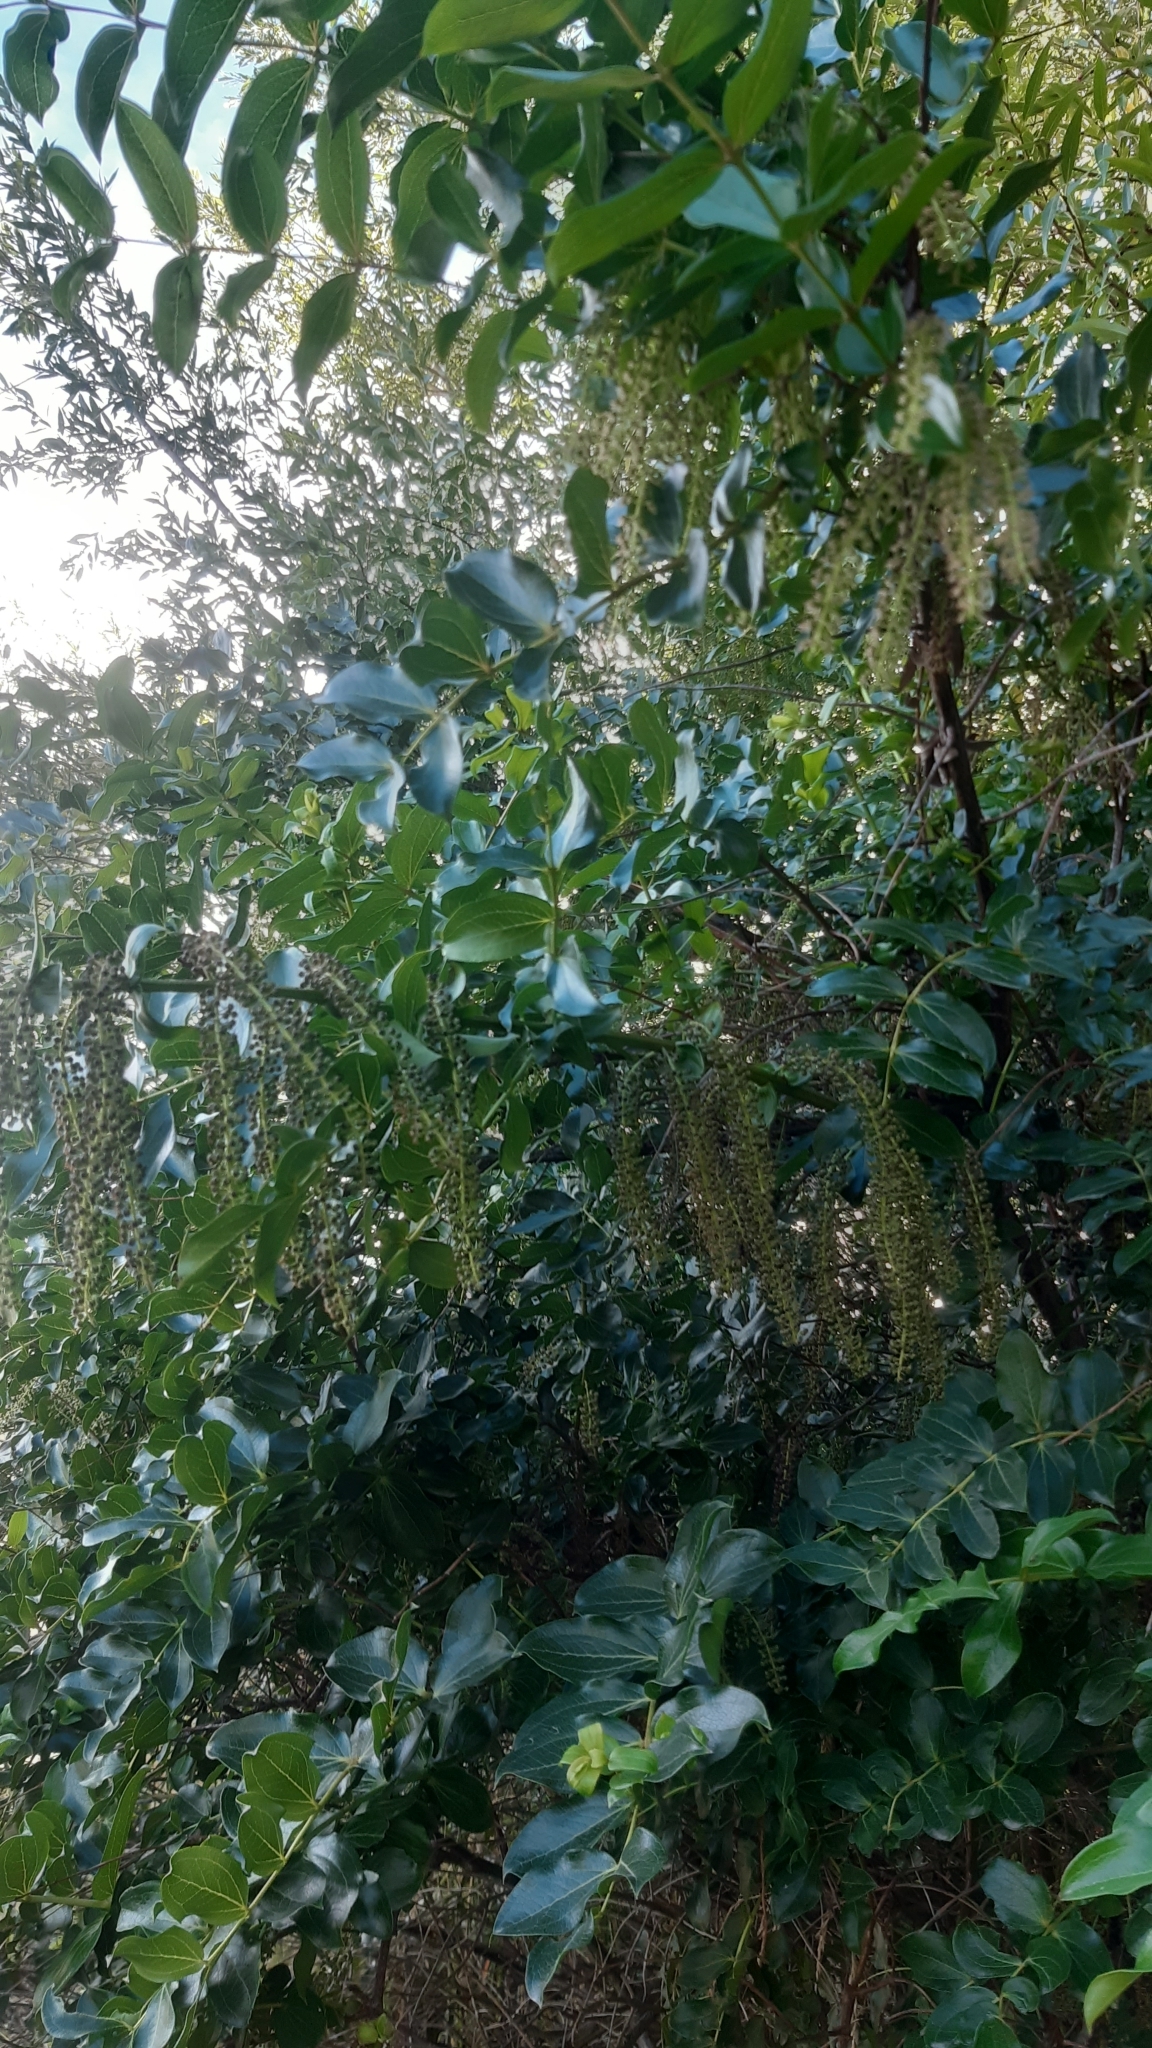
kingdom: Plantae
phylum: Tracheophyta
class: Magnoliopsida
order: Cucurbitales
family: Coriariaceae
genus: Coriaria
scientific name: Coriaria arborea
